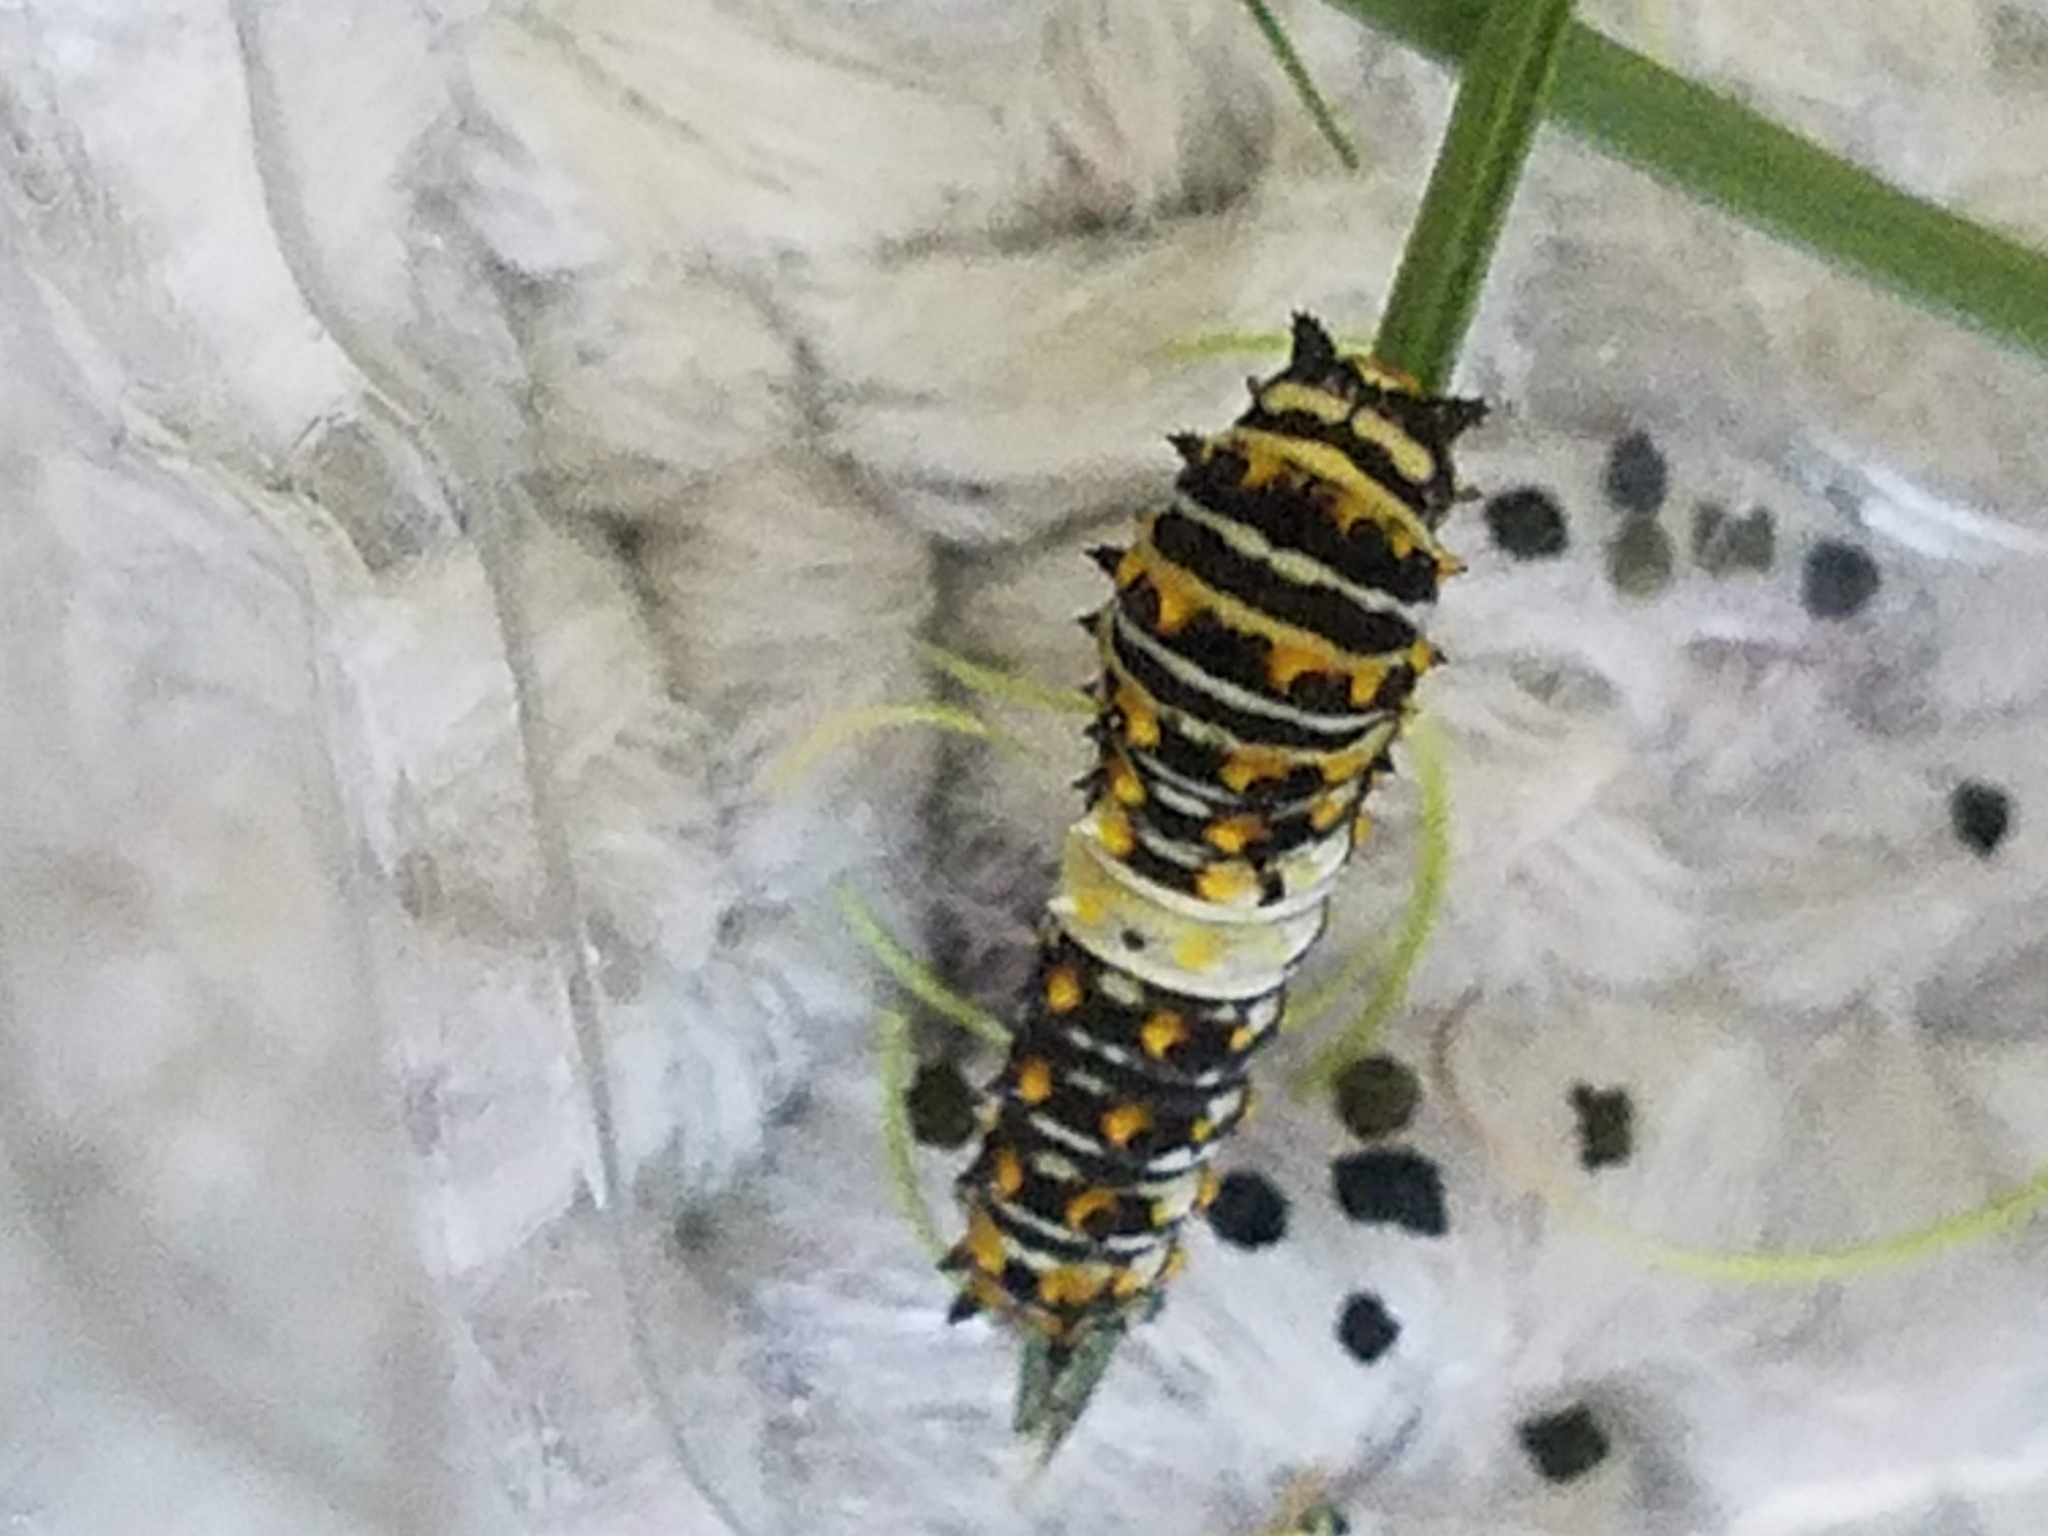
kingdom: Animalia
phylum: Arthropoda
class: Insecta
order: Lepidoptera
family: Papilionidae
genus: Papilio
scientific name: Papilio polyxenes
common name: Black swallowtail
